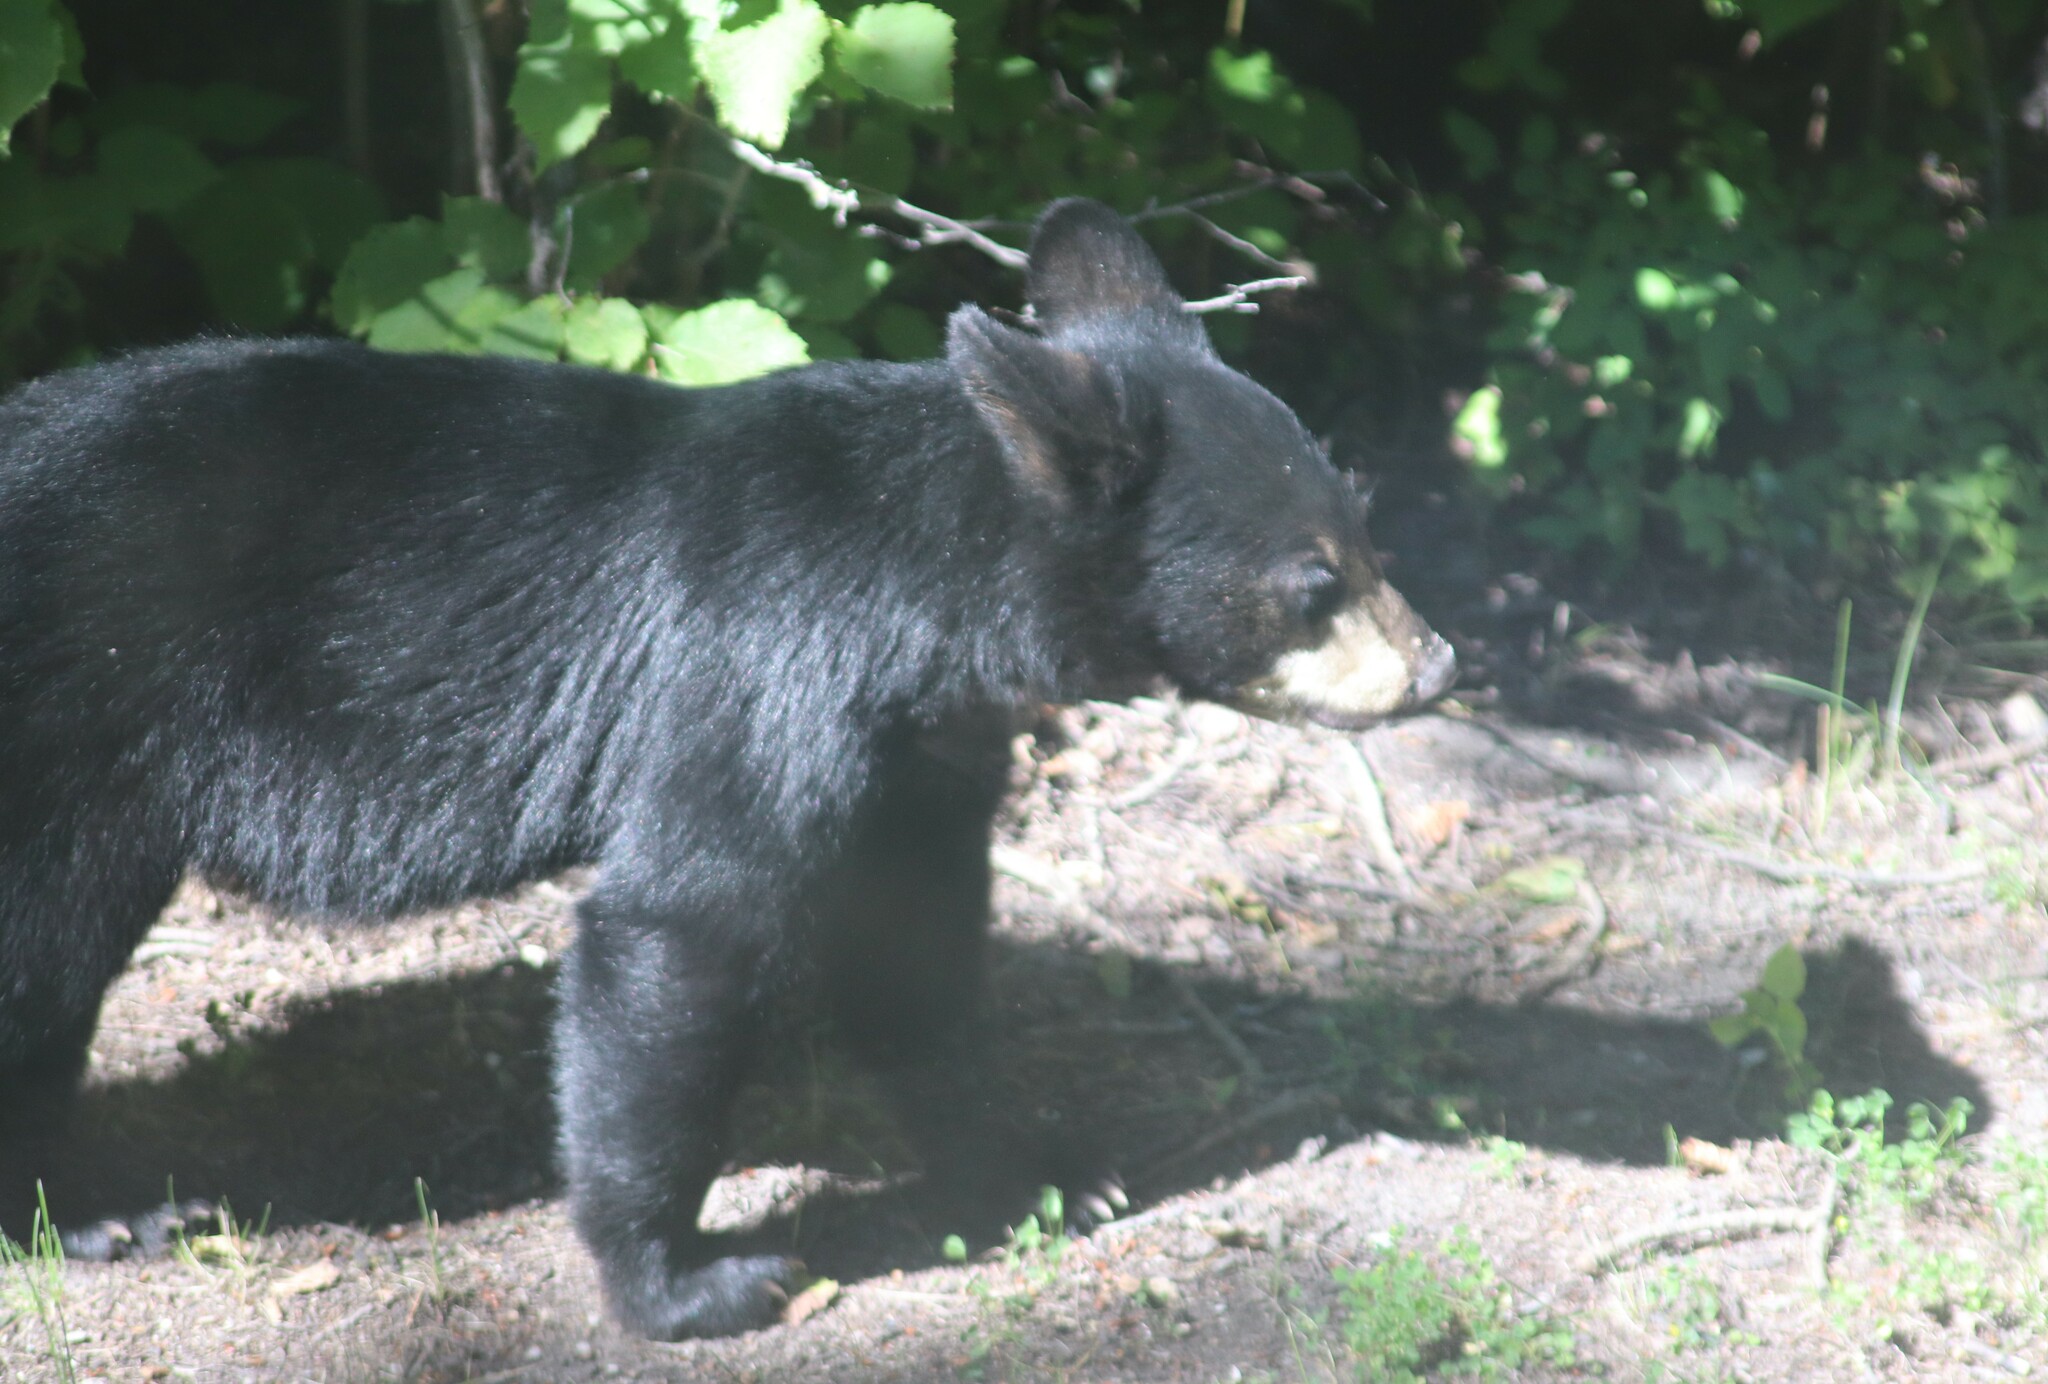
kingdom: Animalia
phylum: Chordata
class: Mammalia
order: Carnivora
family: Ursidae
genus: Ursus
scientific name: Ursus americanus
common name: American black bear
